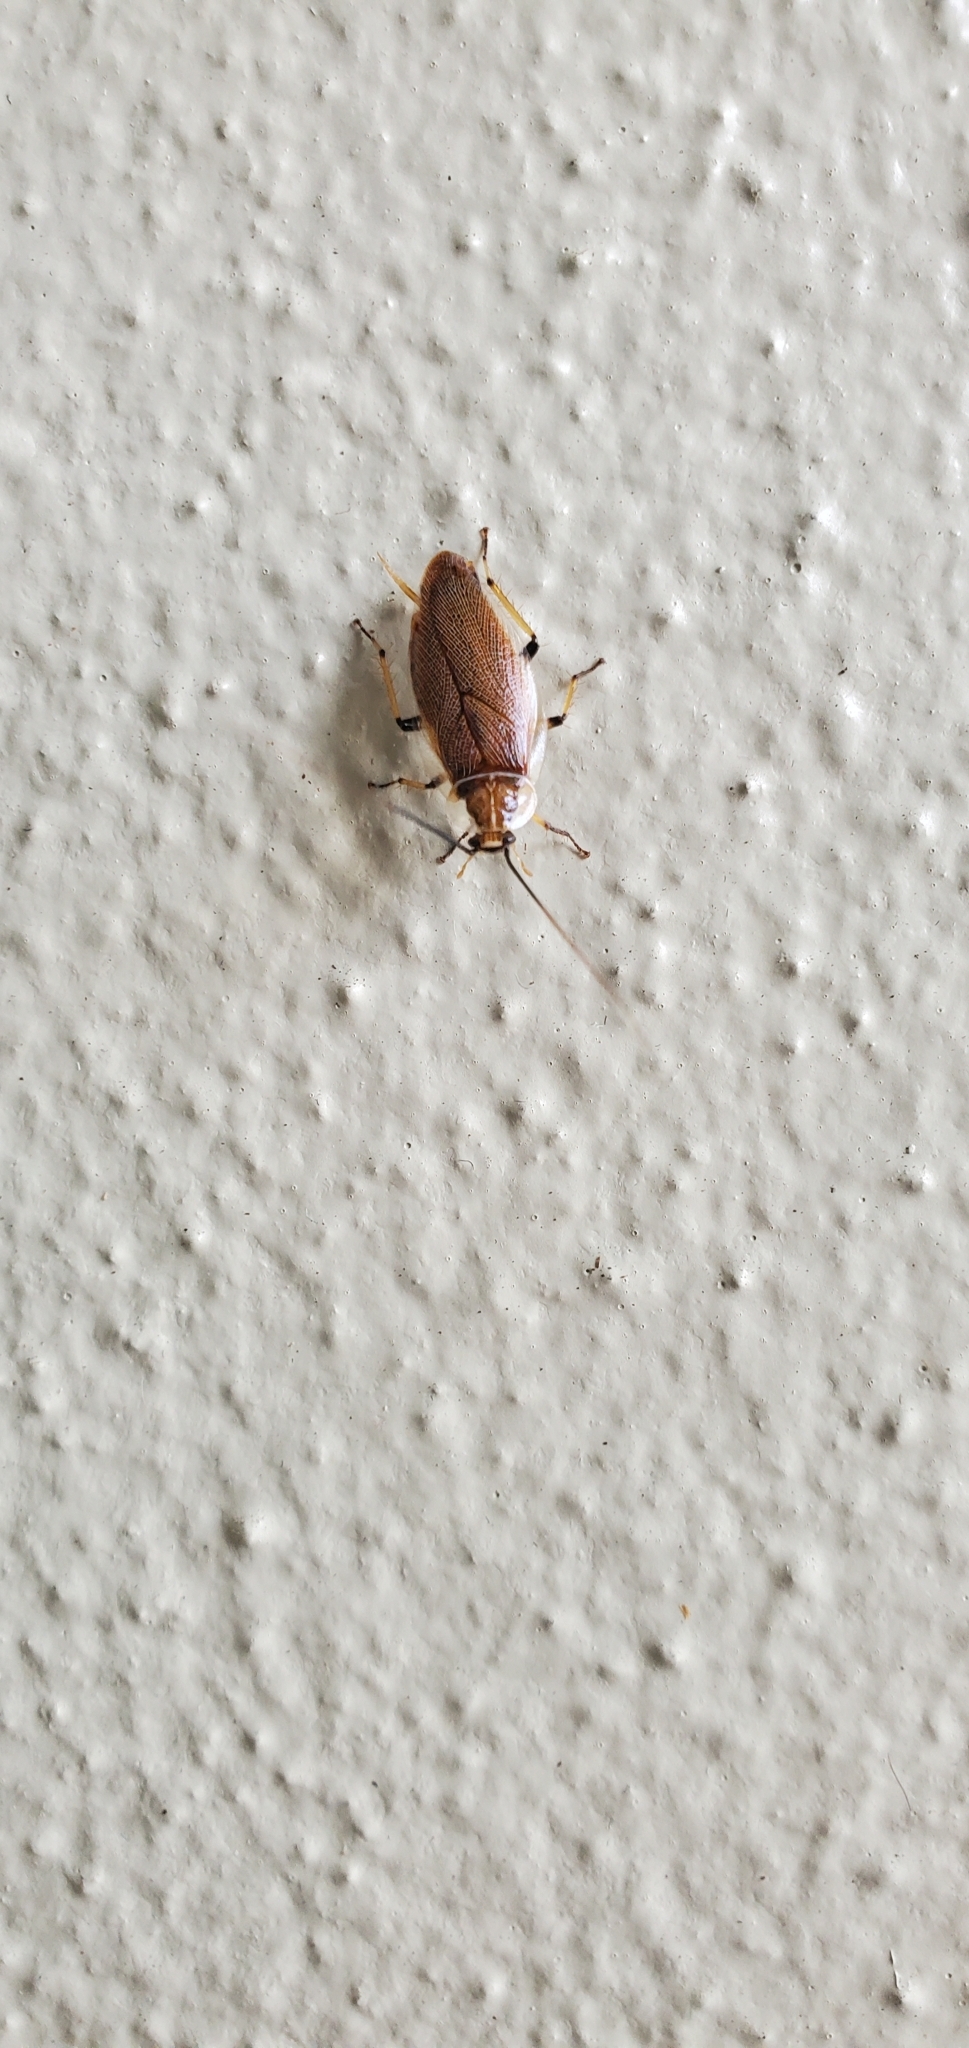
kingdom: Animalia
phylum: Arthropoda
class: Insecta
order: Blattodea
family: Ectobiidae
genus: Balta
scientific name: Balta bicolor
